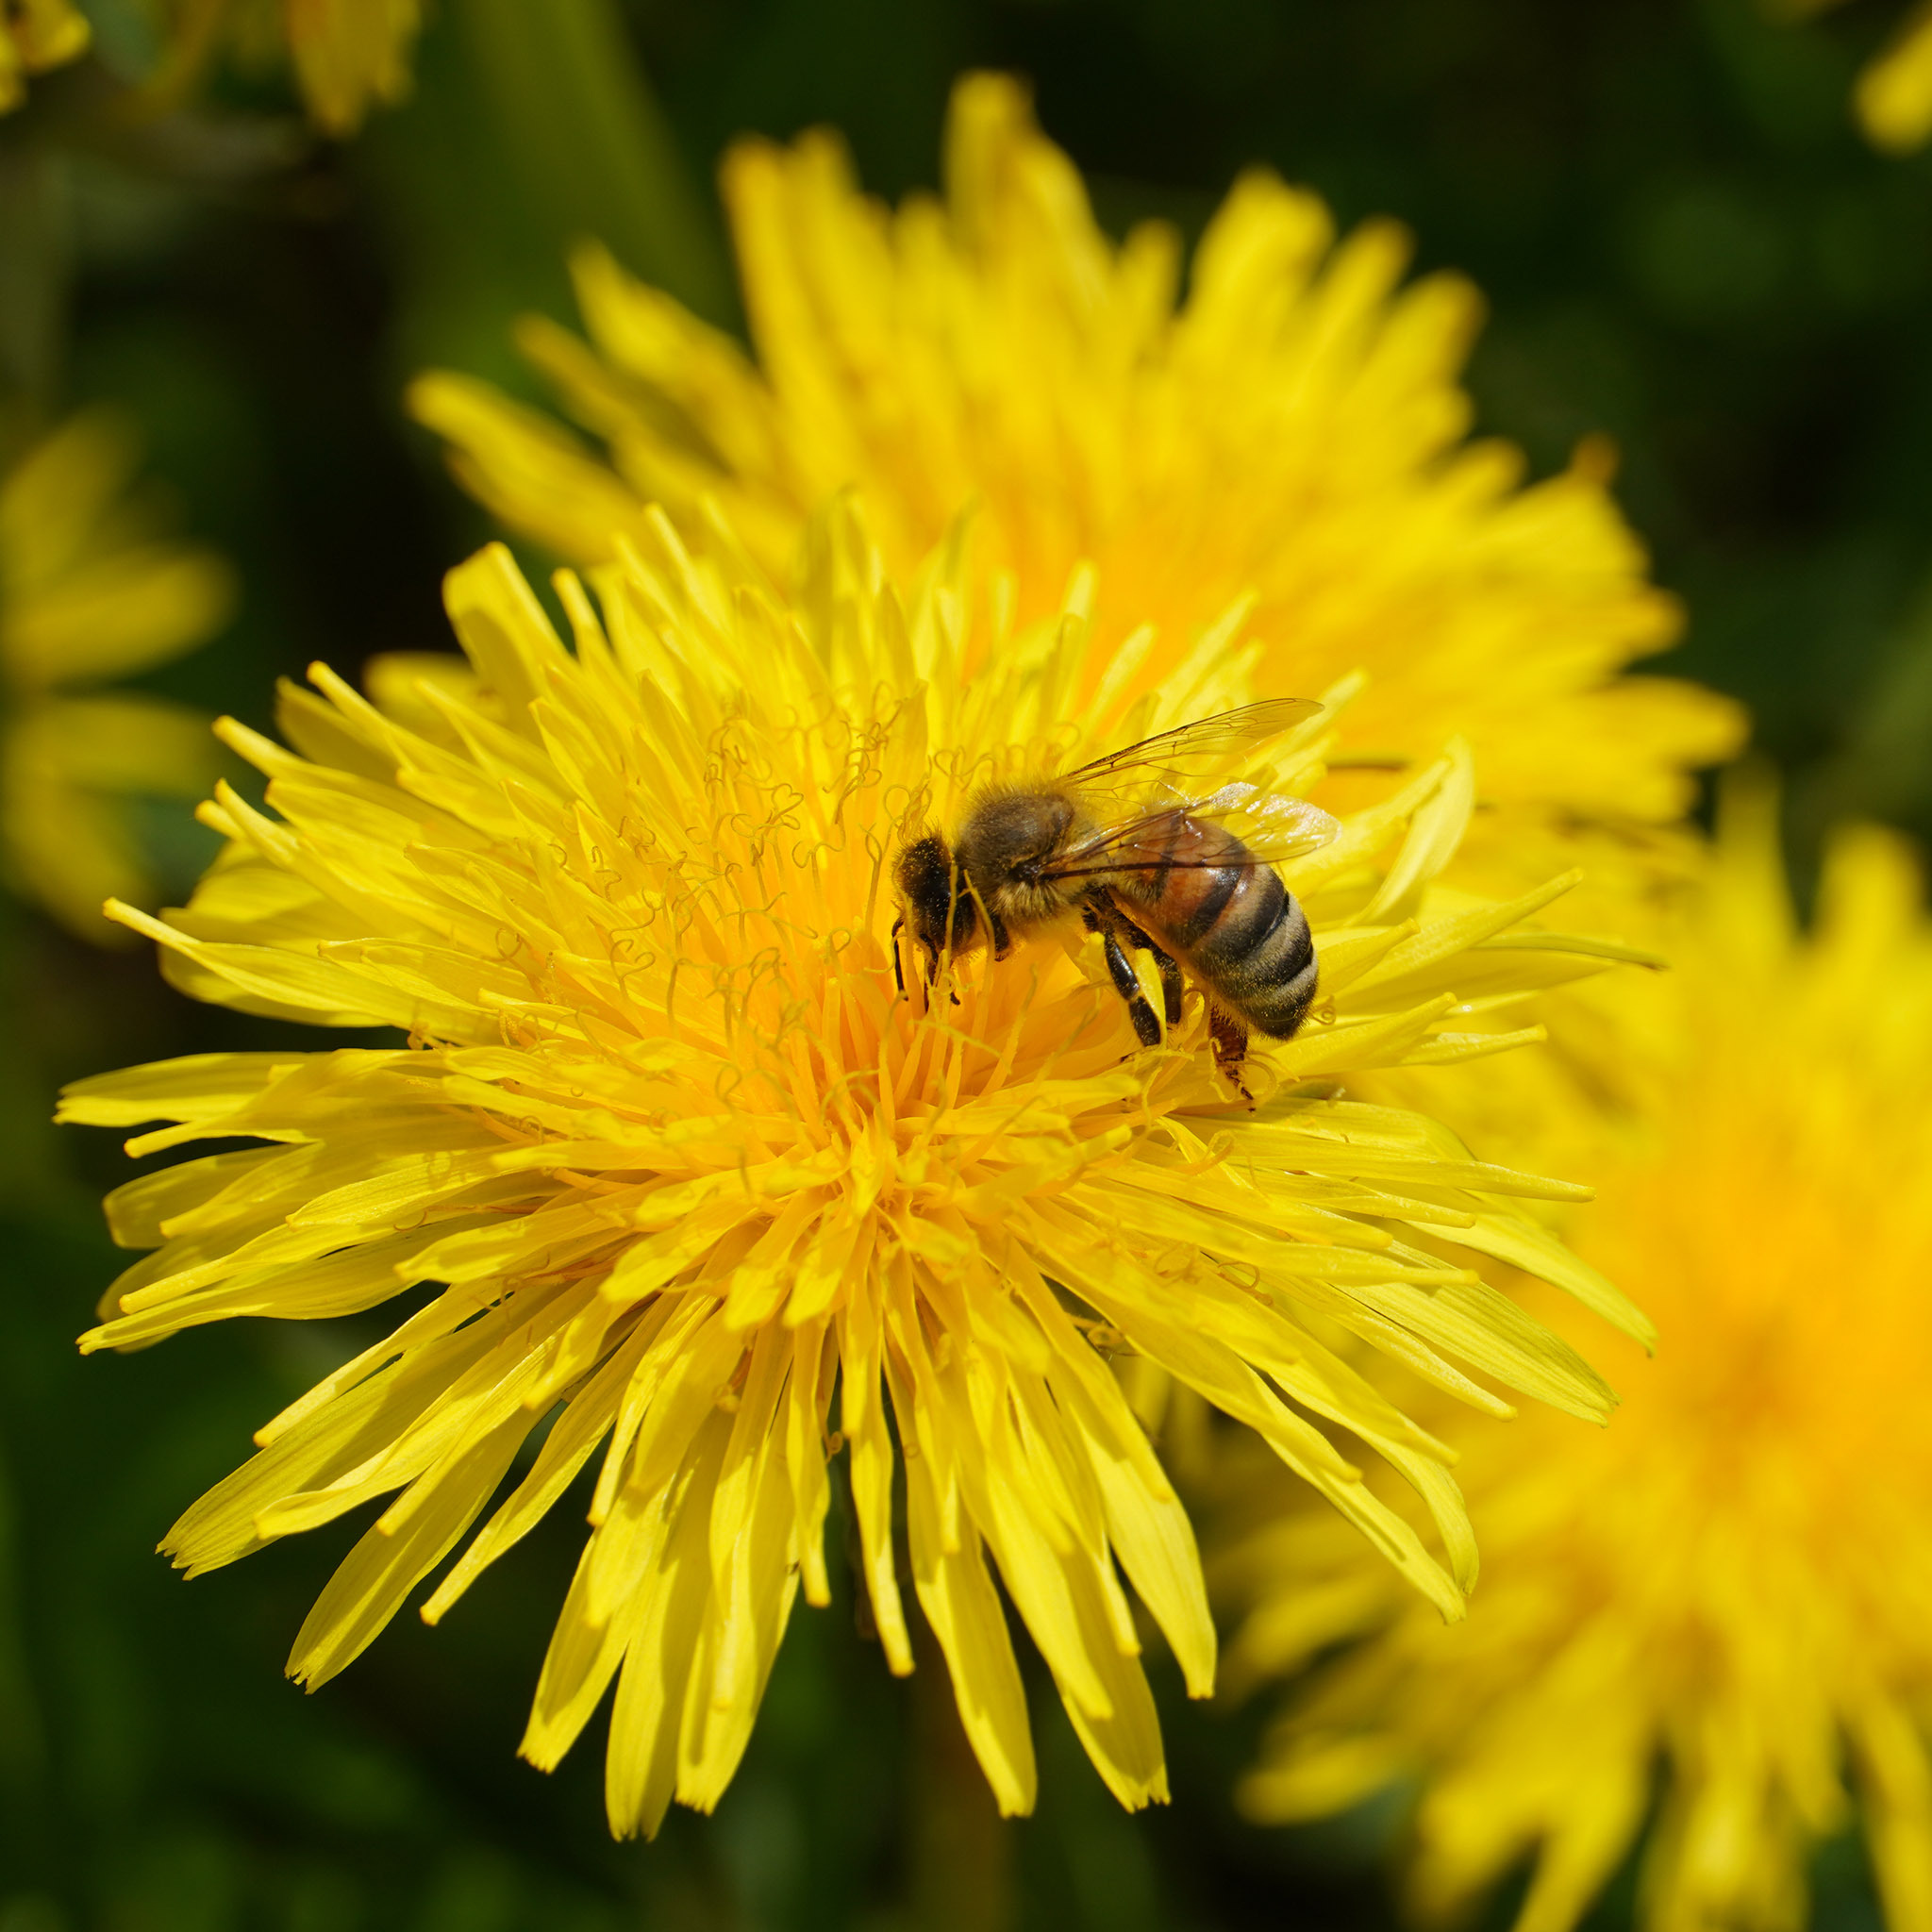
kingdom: Animalia
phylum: Arthropoda
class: Insecta
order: Hymenoptera
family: Apidae
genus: Apis
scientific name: Apis mellifera
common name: Honey bee
